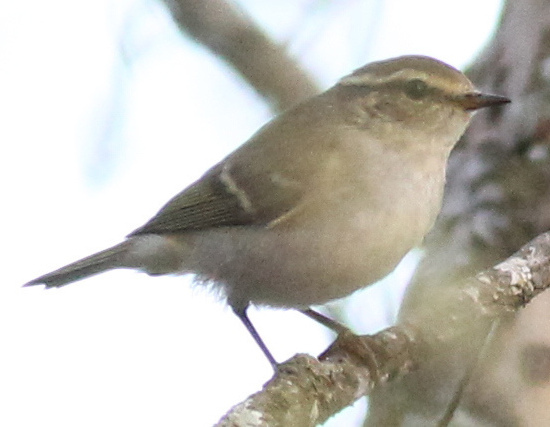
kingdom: Animalia
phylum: Chordata
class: Aves
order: Passeriformes
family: Phylloscopidae
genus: Phylloscopus
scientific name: Phylloscopus inornatus
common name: Yellow-browed warbler
